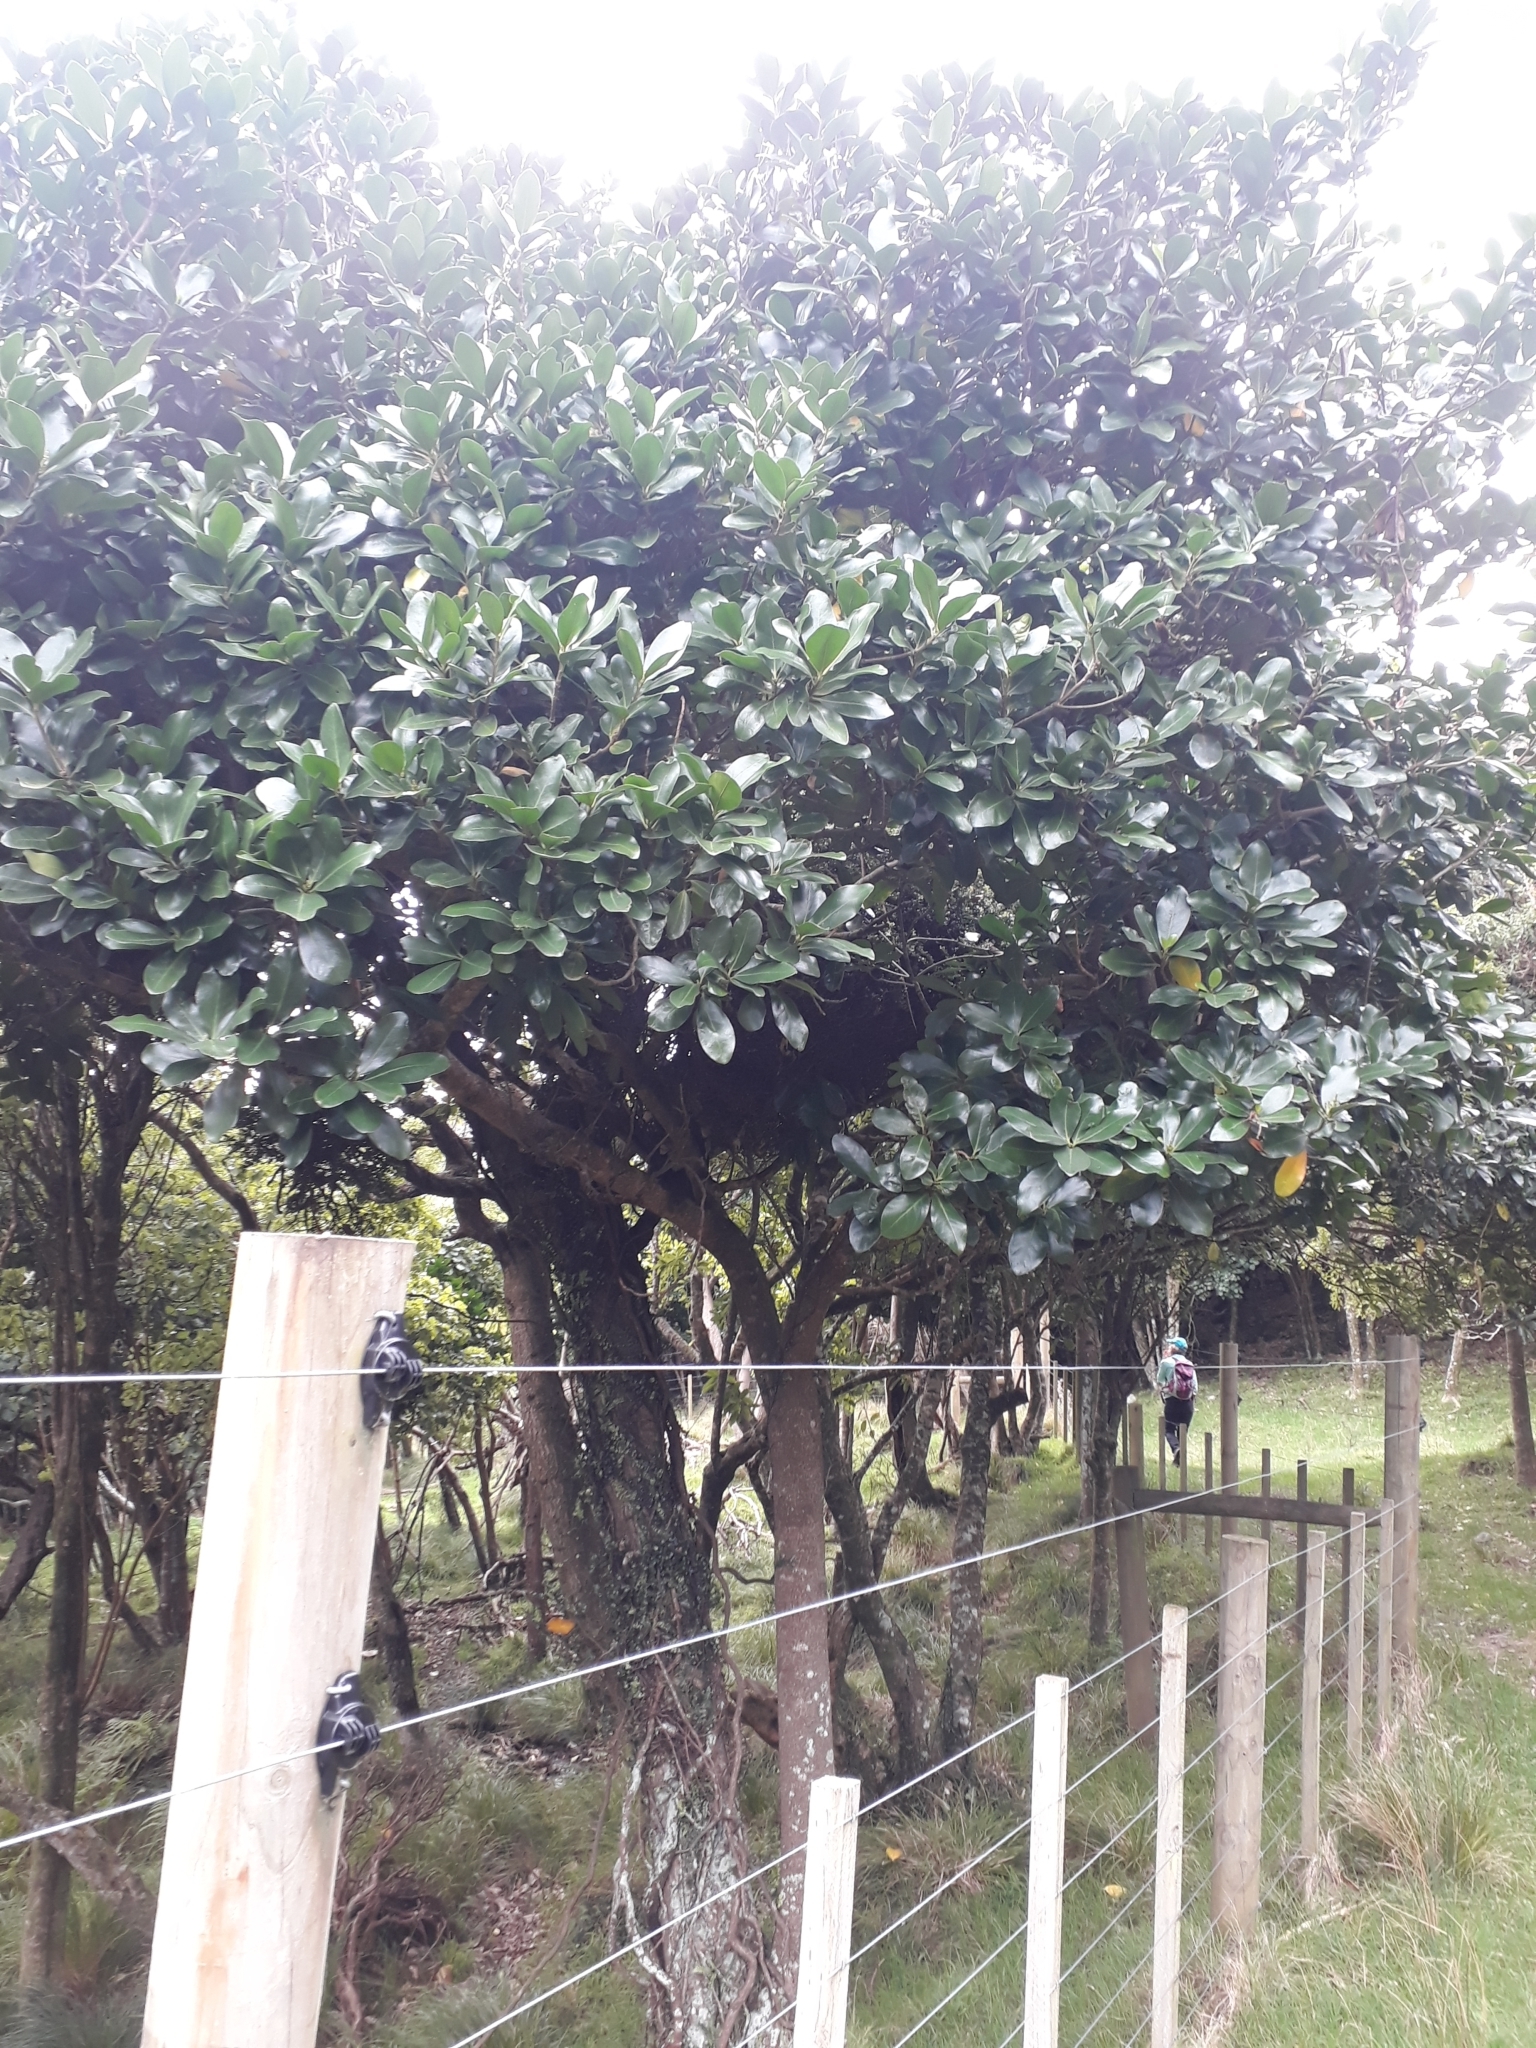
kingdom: Plantae
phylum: Tracheophyta
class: Magnoliopsida
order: Cucurbitales
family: Corynocarpaceae
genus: Corynocarpus
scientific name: Corynocarpus laevigatus
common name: New zealand laurel
